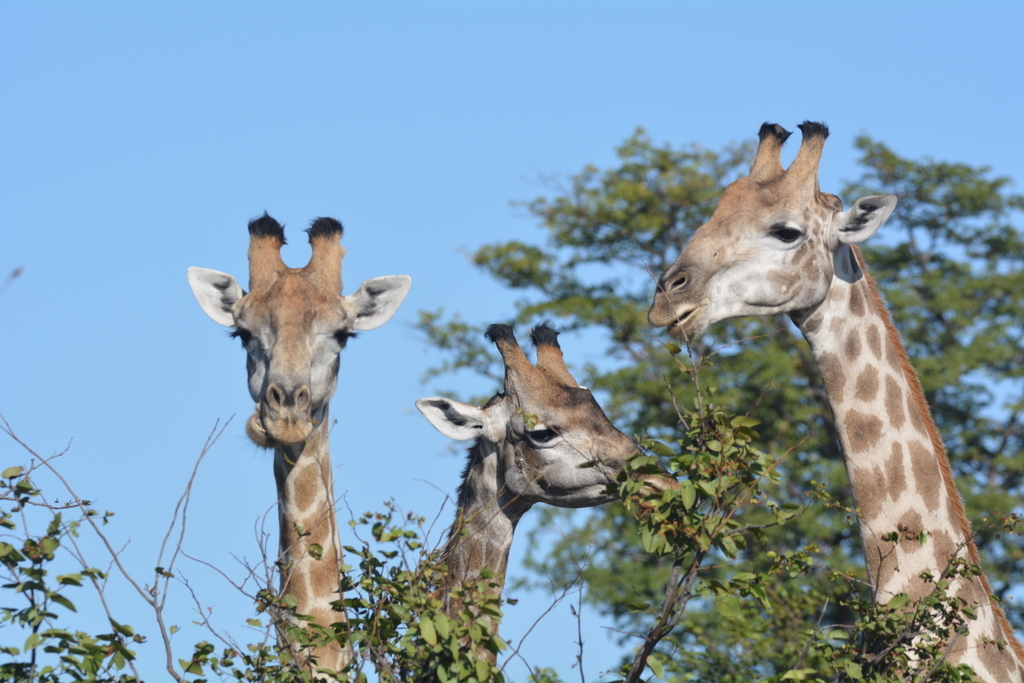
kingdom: Animalia
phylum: Chordata
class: Mammalia
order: Artiodactyla
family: Giraffidae
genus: Giraffa
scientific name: Giraffa giraffa
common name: Southern giraffe
